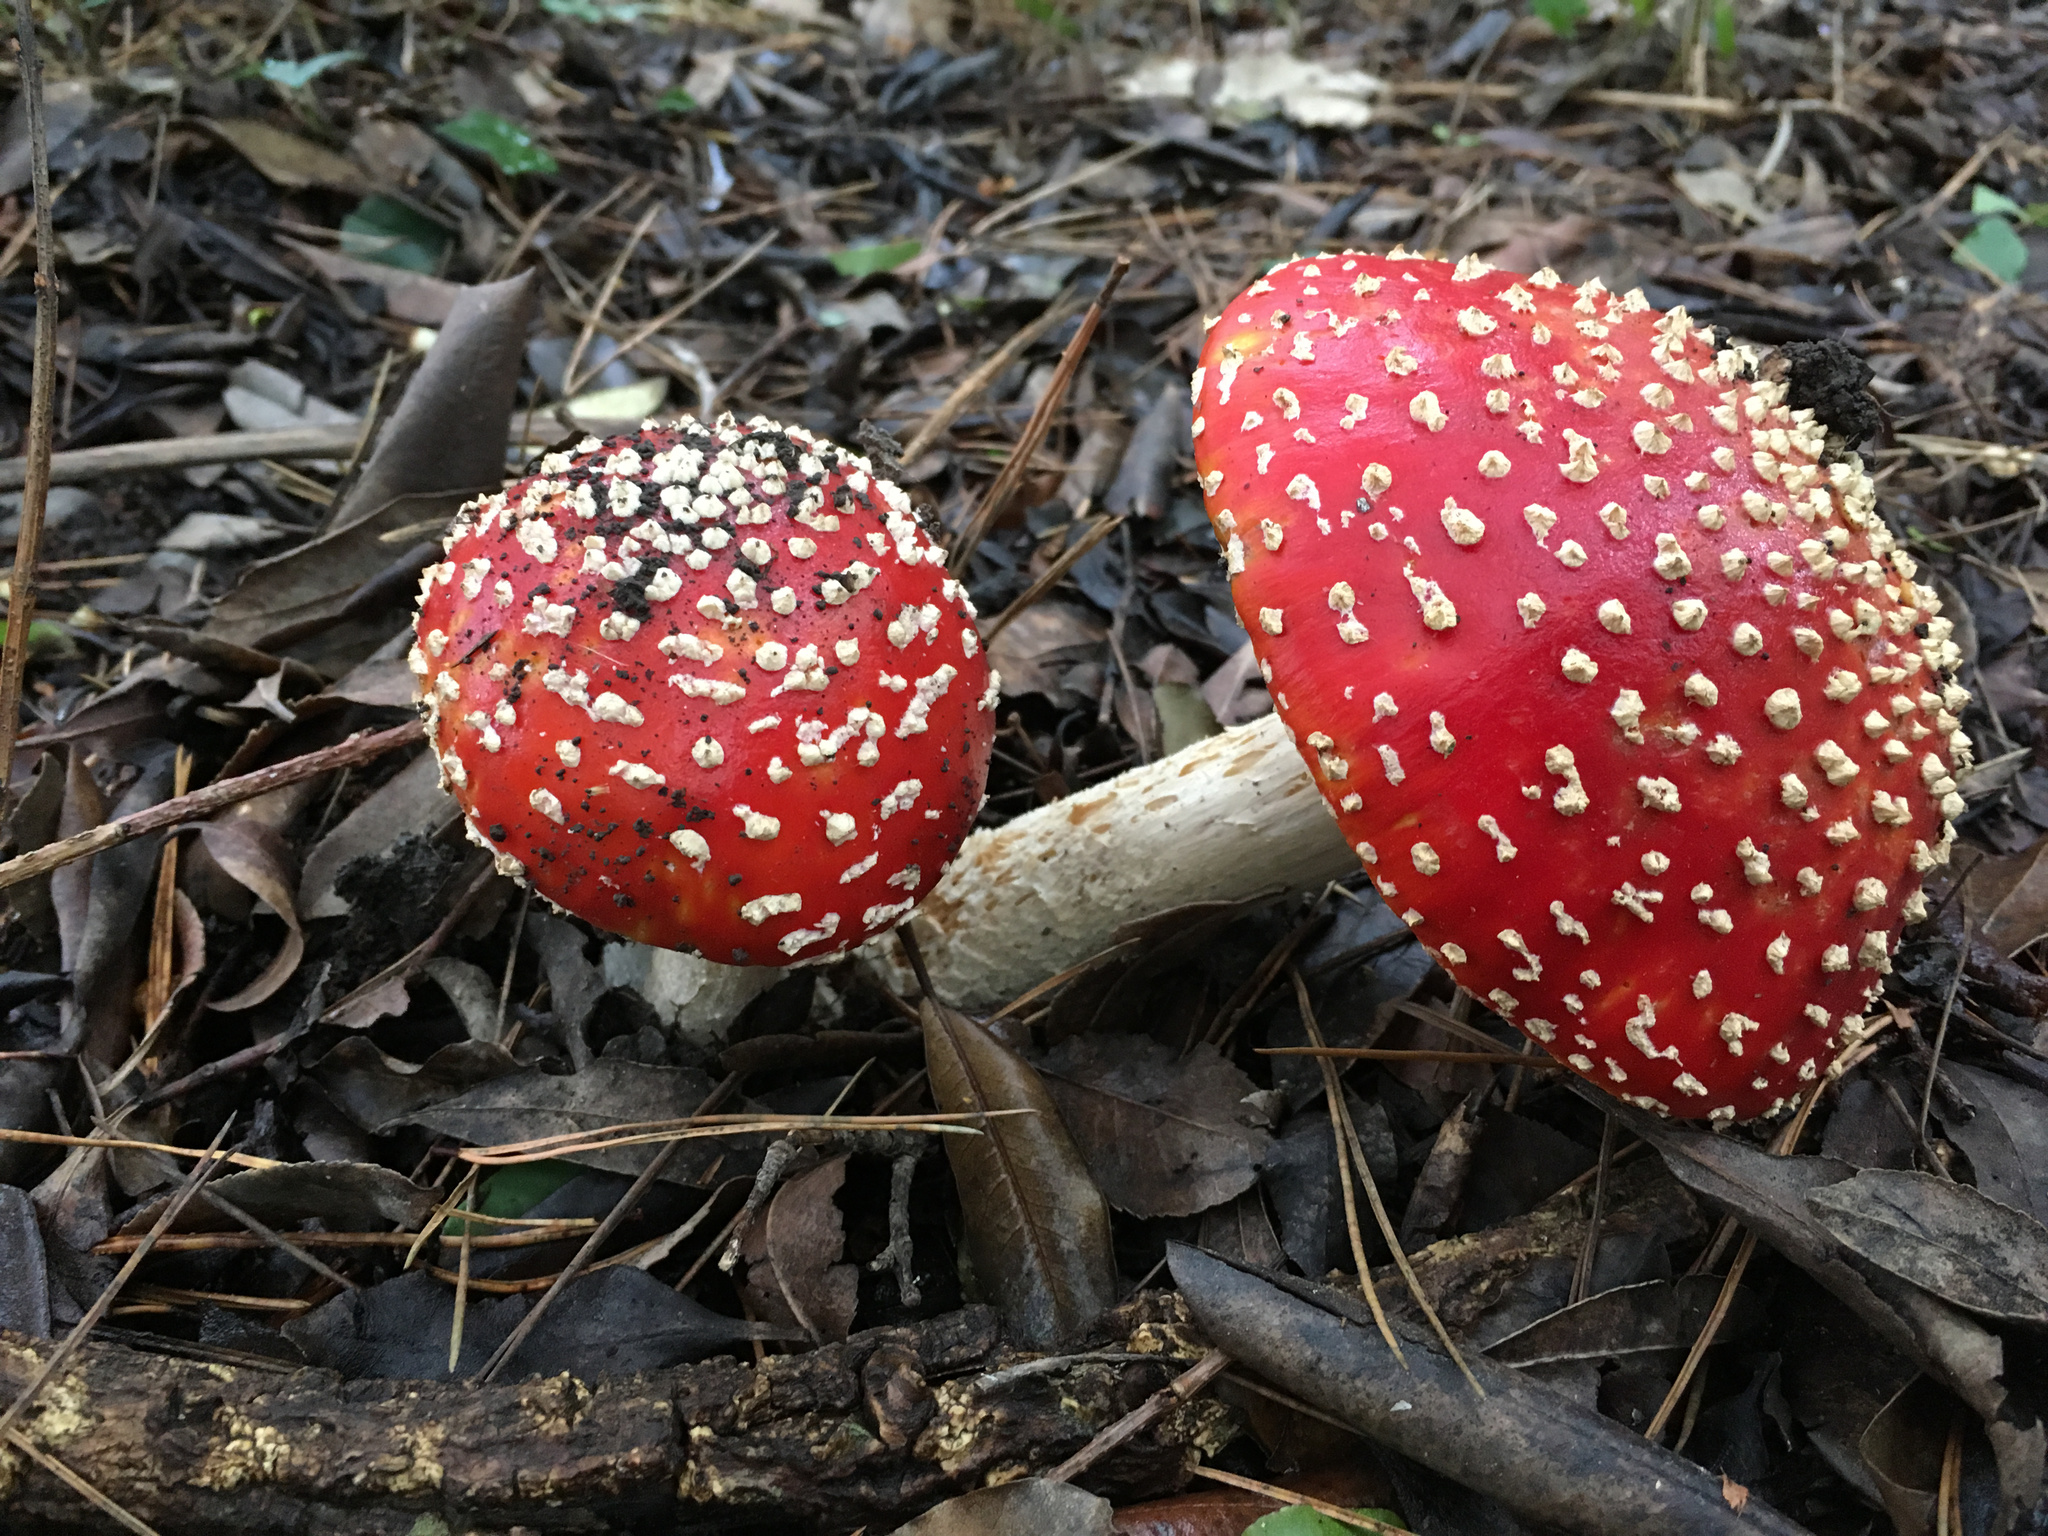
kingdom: Fungi
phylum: Basidiomycota
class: Agaricomycetes
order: Agaricales
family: Amanitaceae
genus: Amanita
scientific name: Amanita muscaria
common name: Fly agaric
